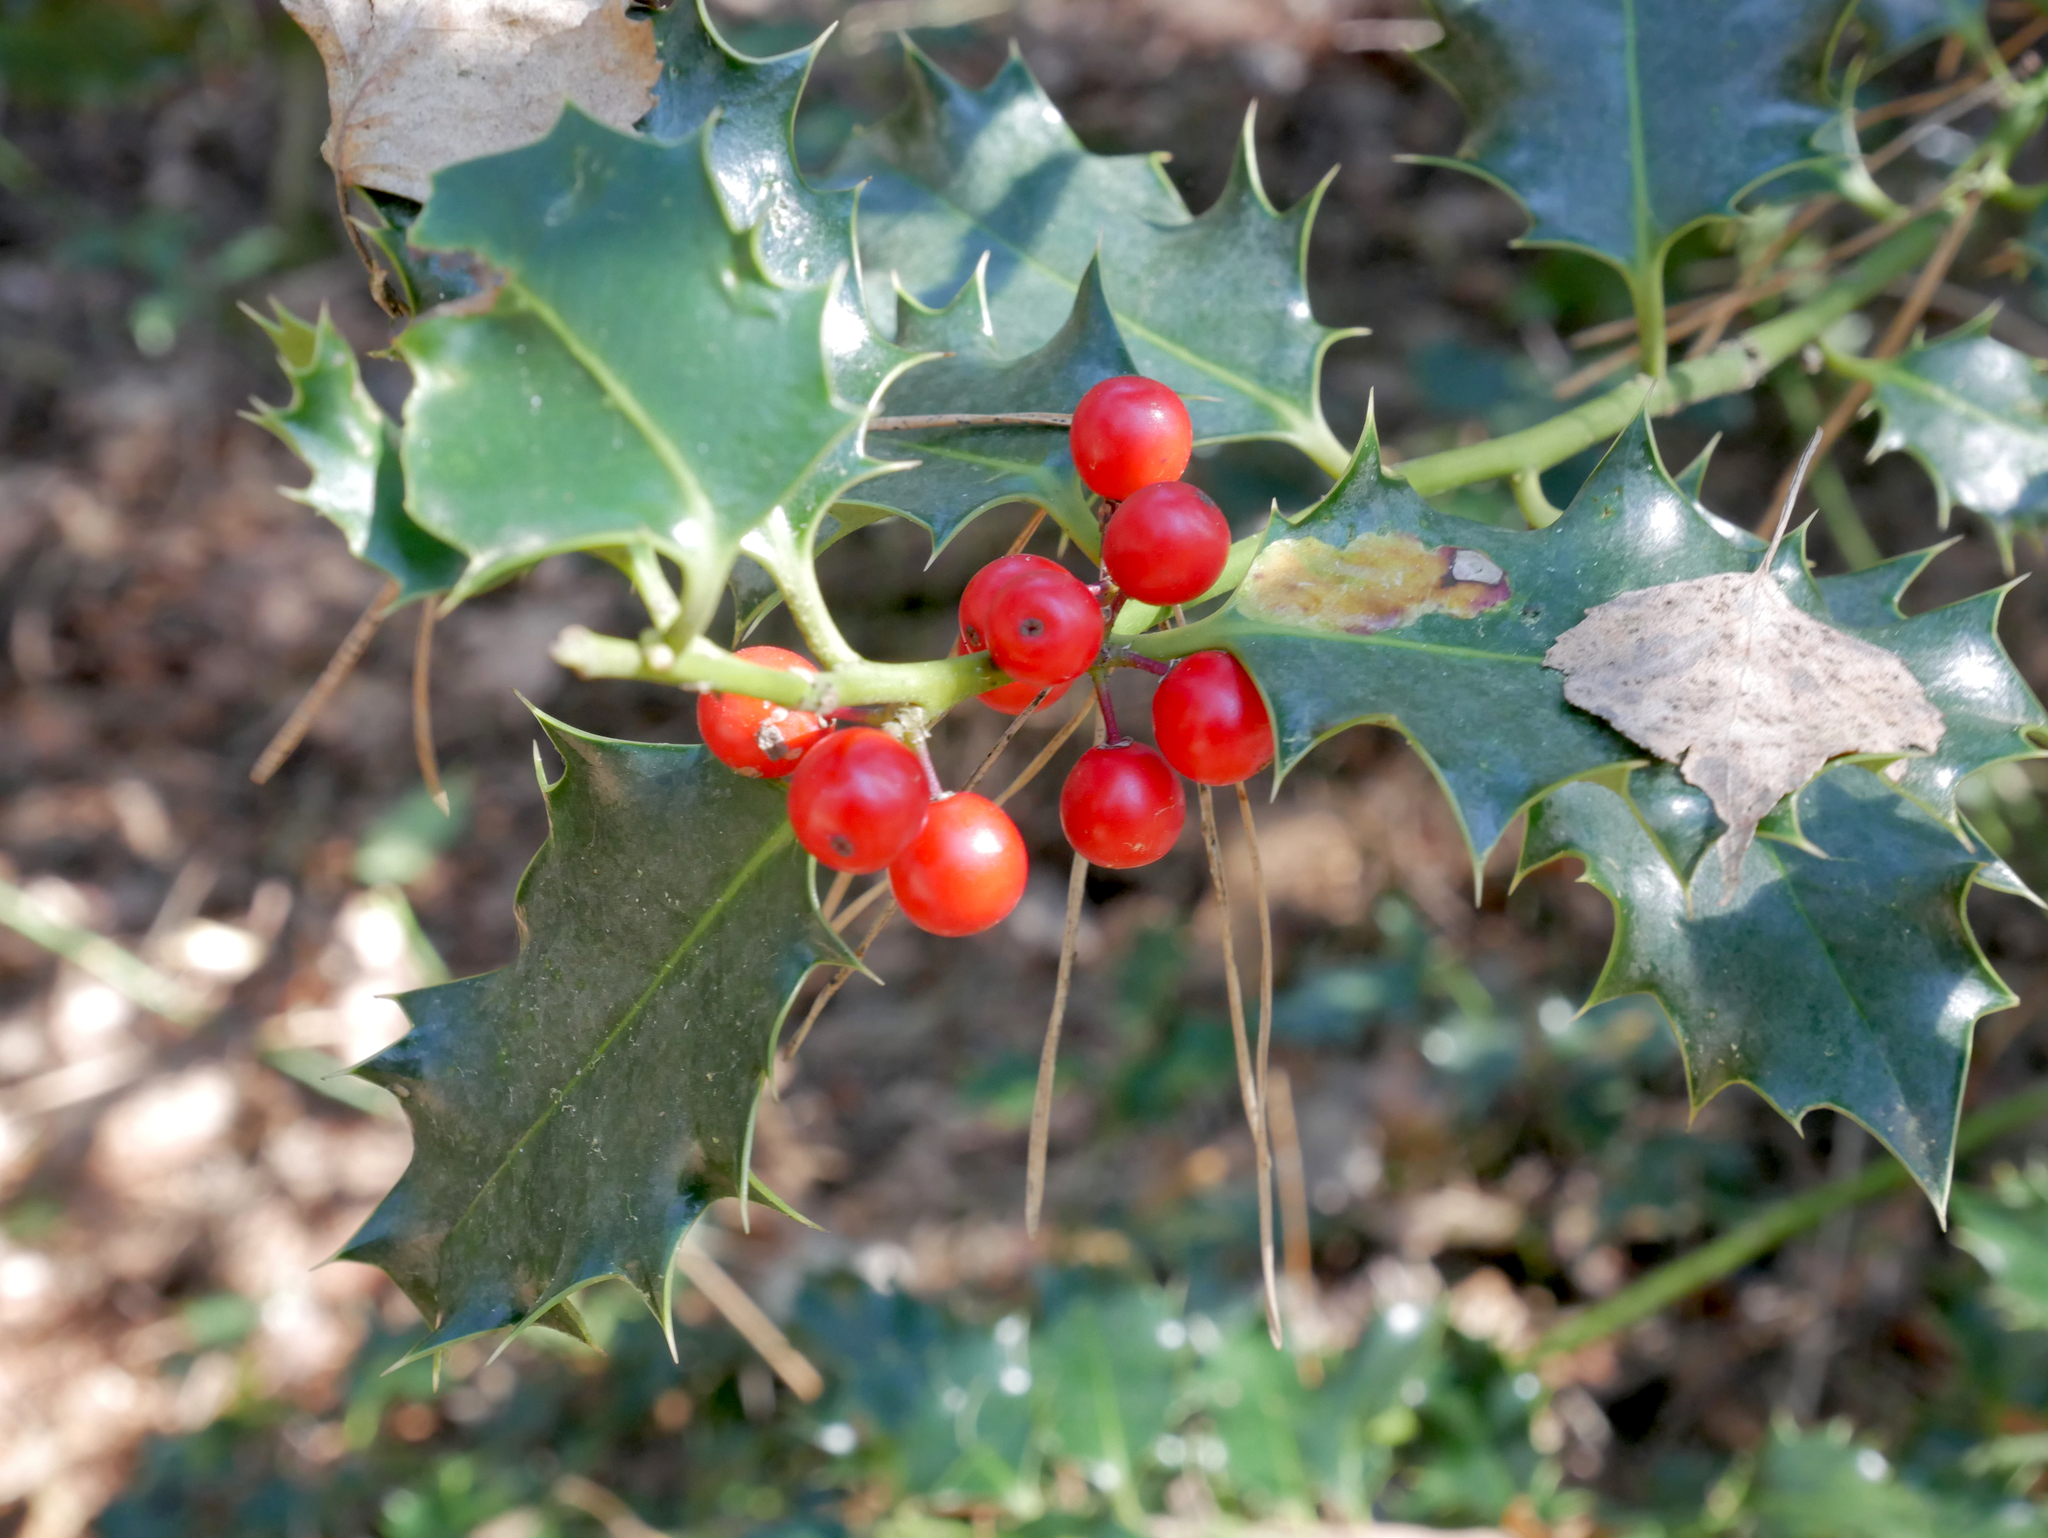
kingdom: Plantae
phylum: Tracheophyta
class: Magnoliopsida
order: Aquifoliales
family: Aquifoliaceae
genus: Ilex
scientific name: Ilex aquifolium
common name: English holly
